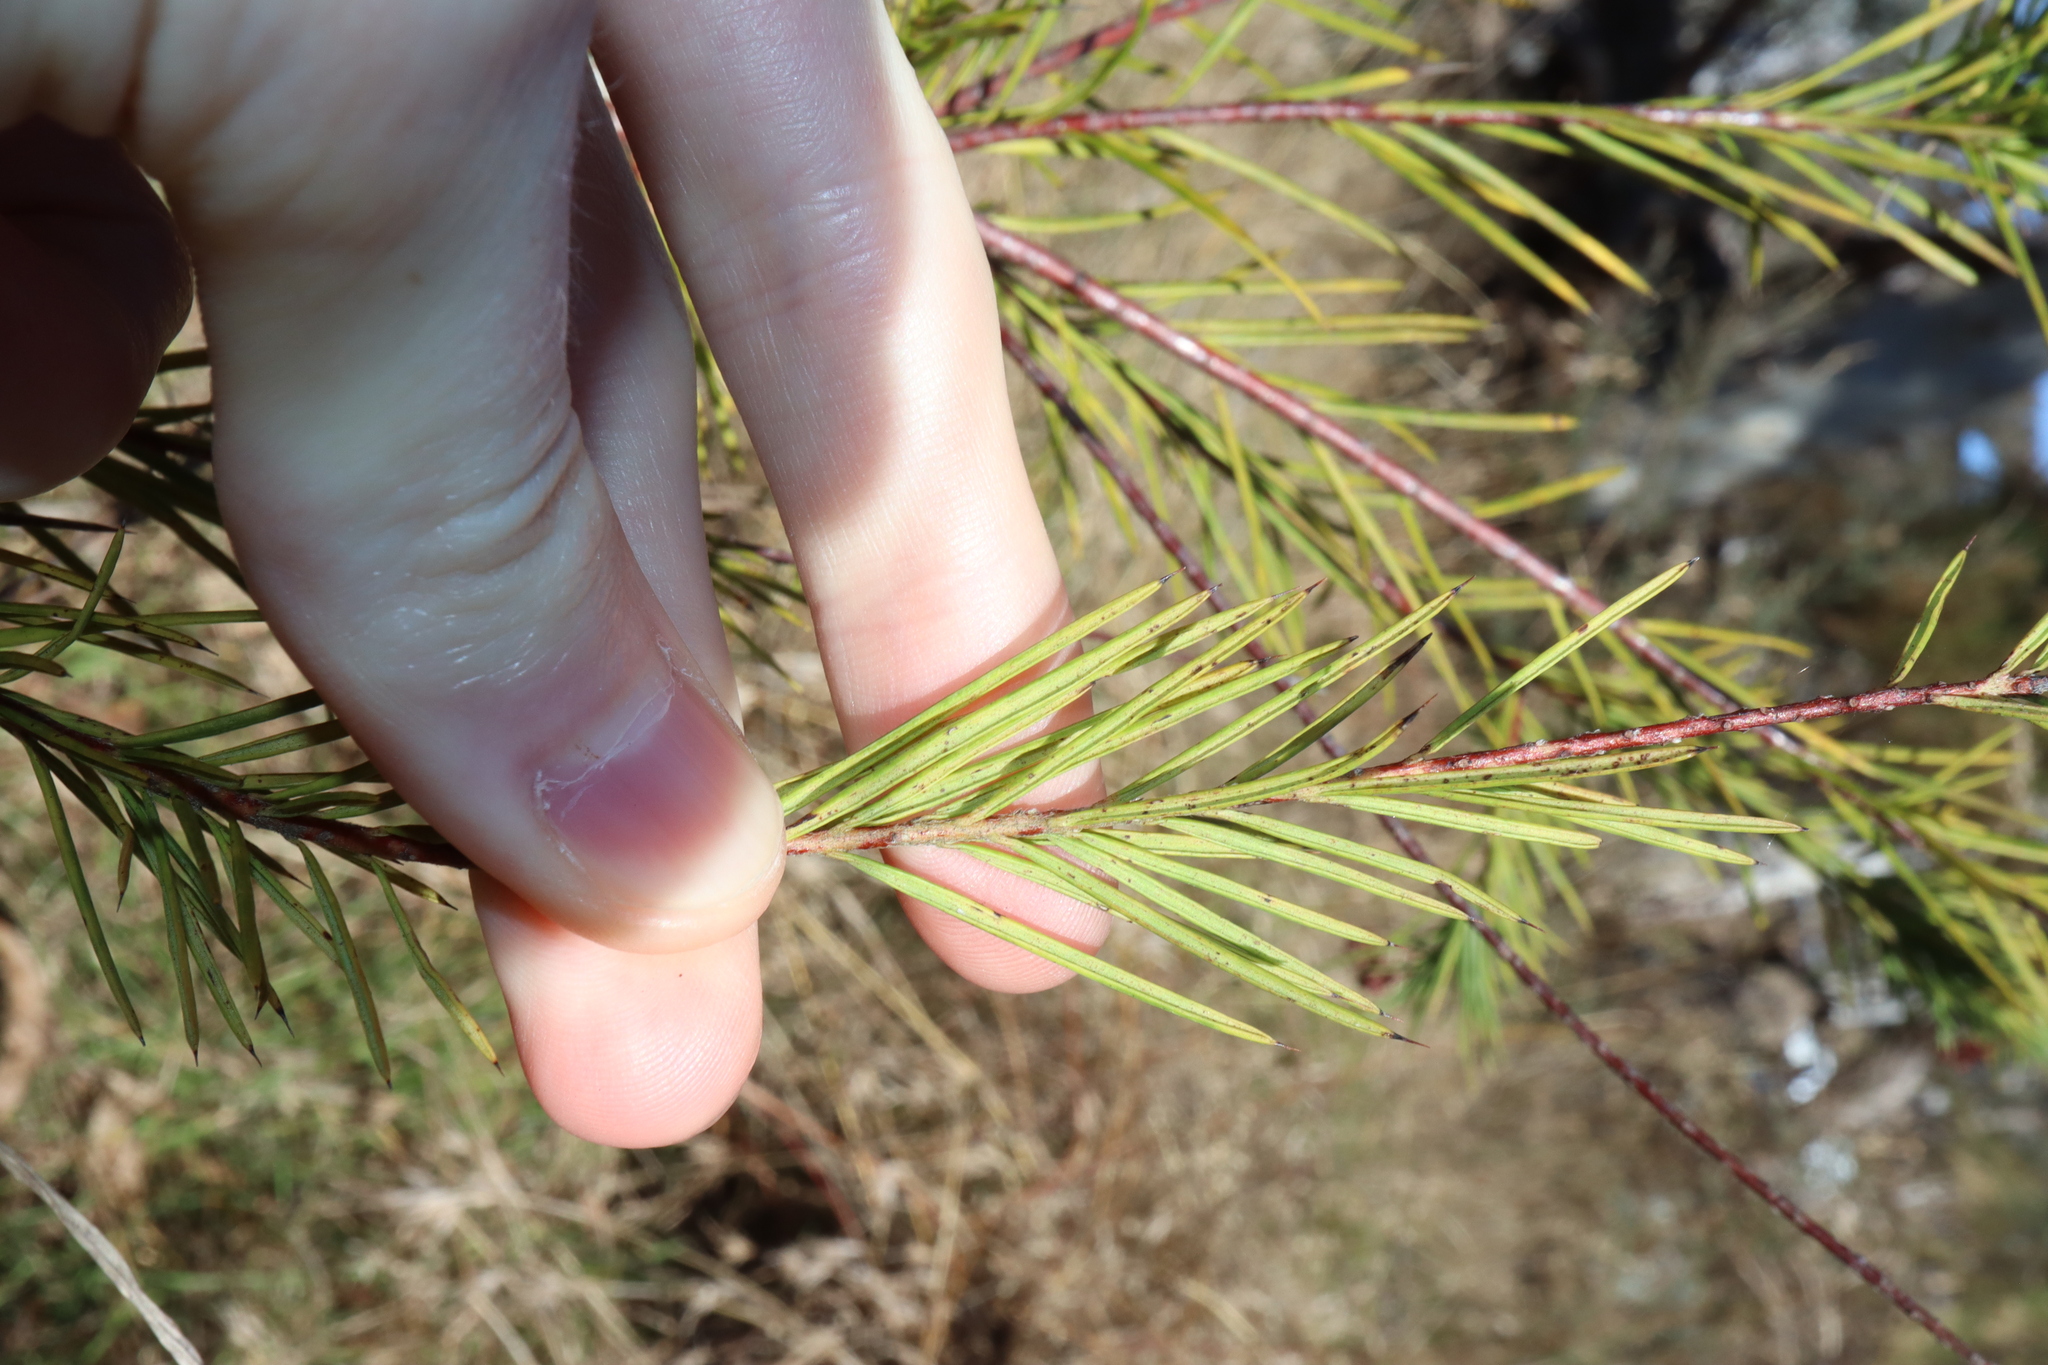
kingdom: Plantae
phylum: Tracheophyta
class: Magnoliopsida
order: Proteales
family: Proteaceae
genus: Grevillea
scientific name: Grevillea rosmarinifolia
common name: Rosemary grevillea
